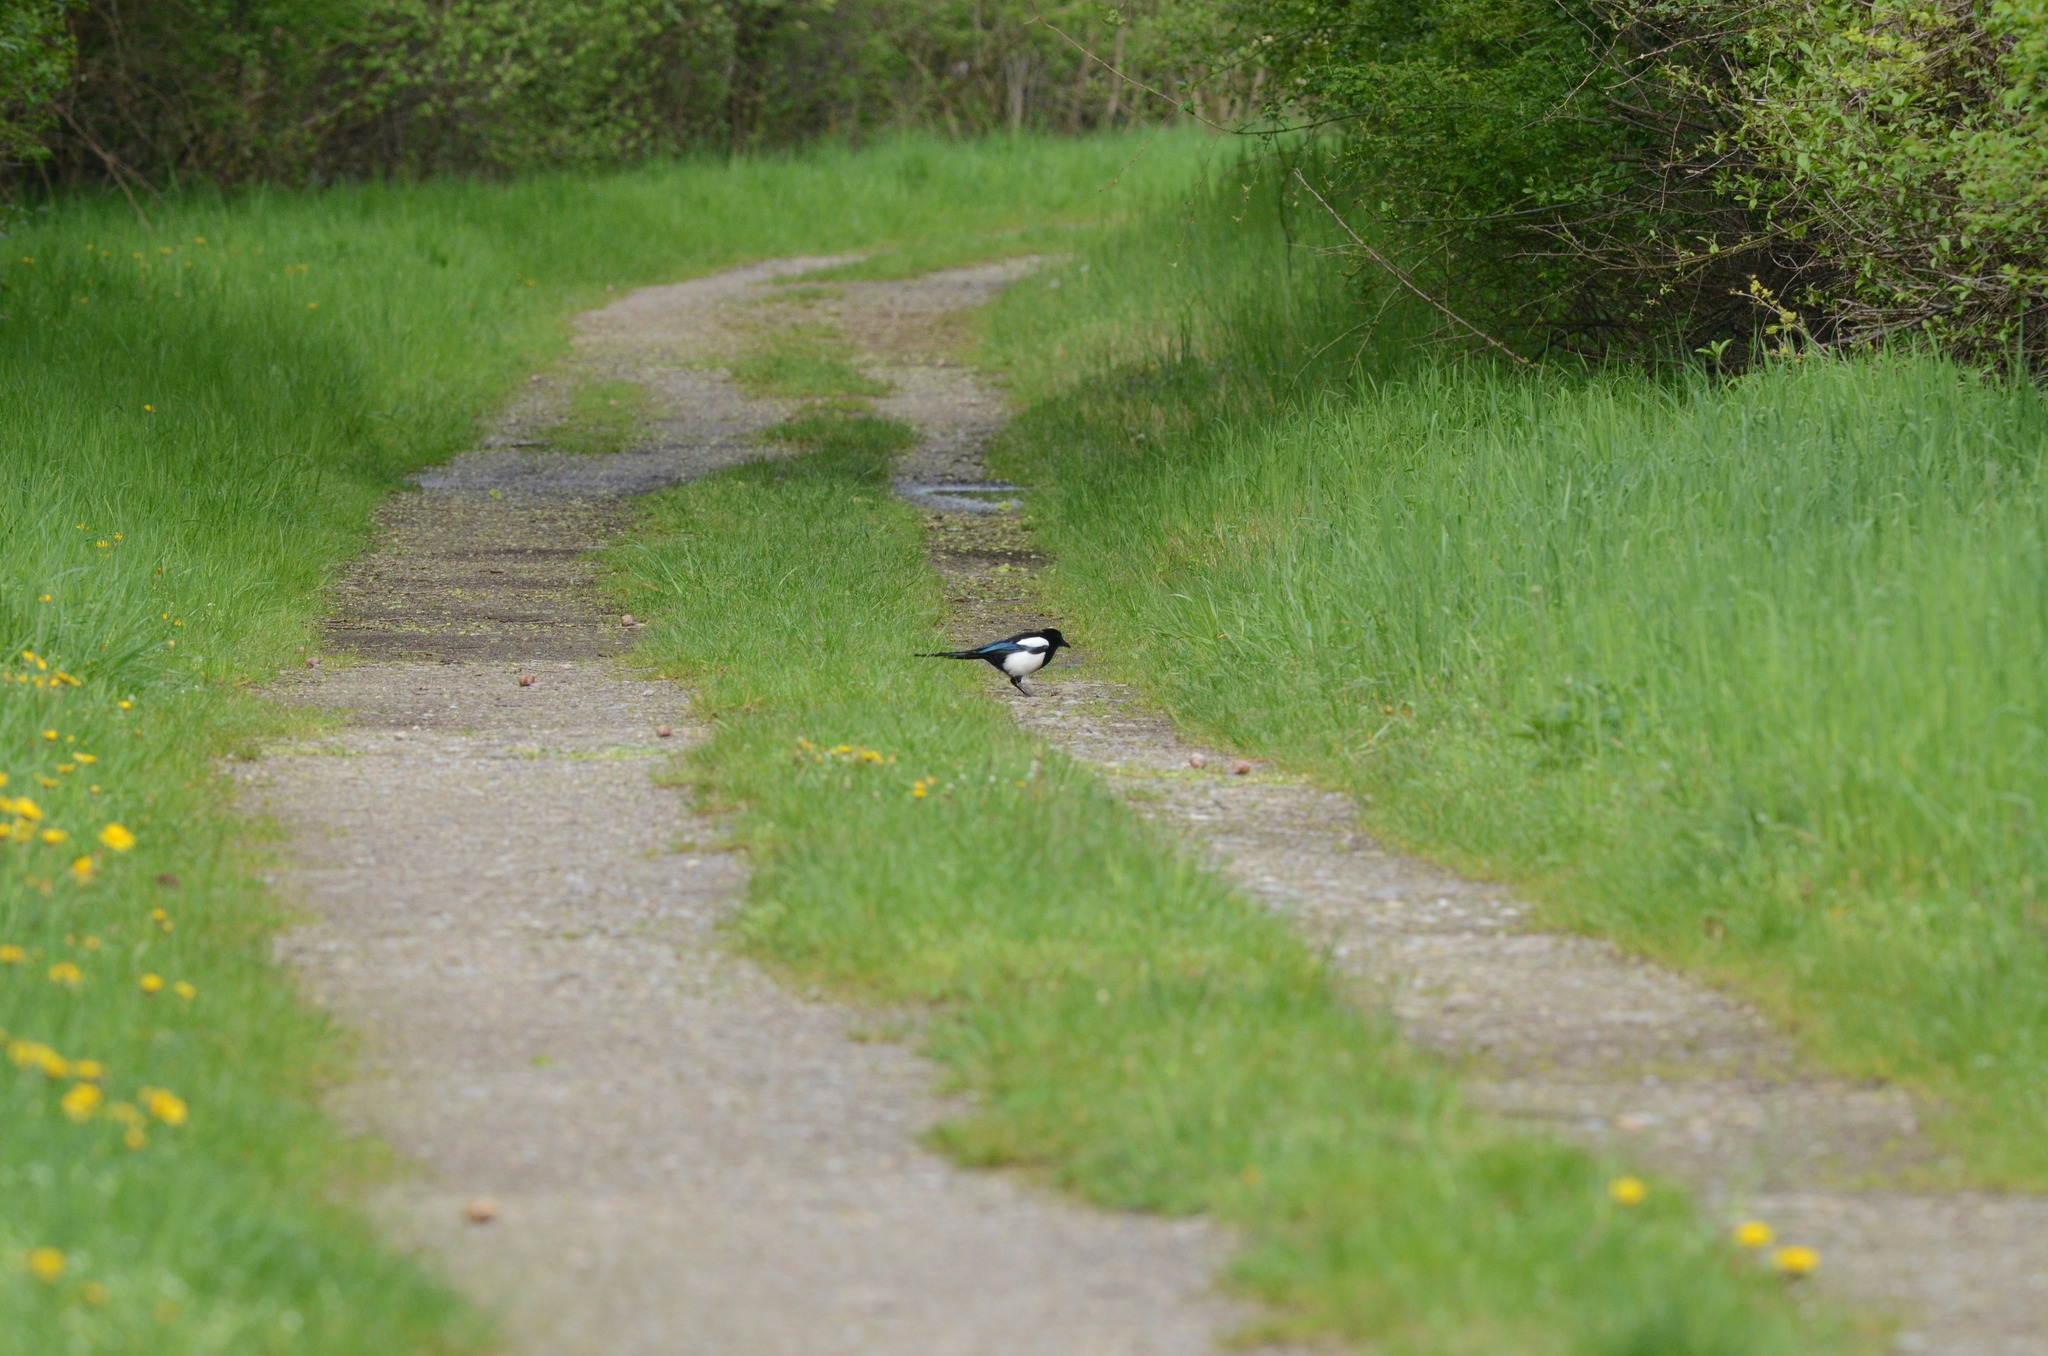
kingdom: Animalia
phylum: Chordata
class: Aves
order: Passeriformes
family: Corvidae
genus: Pica
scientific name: Pica pica
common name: Eurasian magpie
